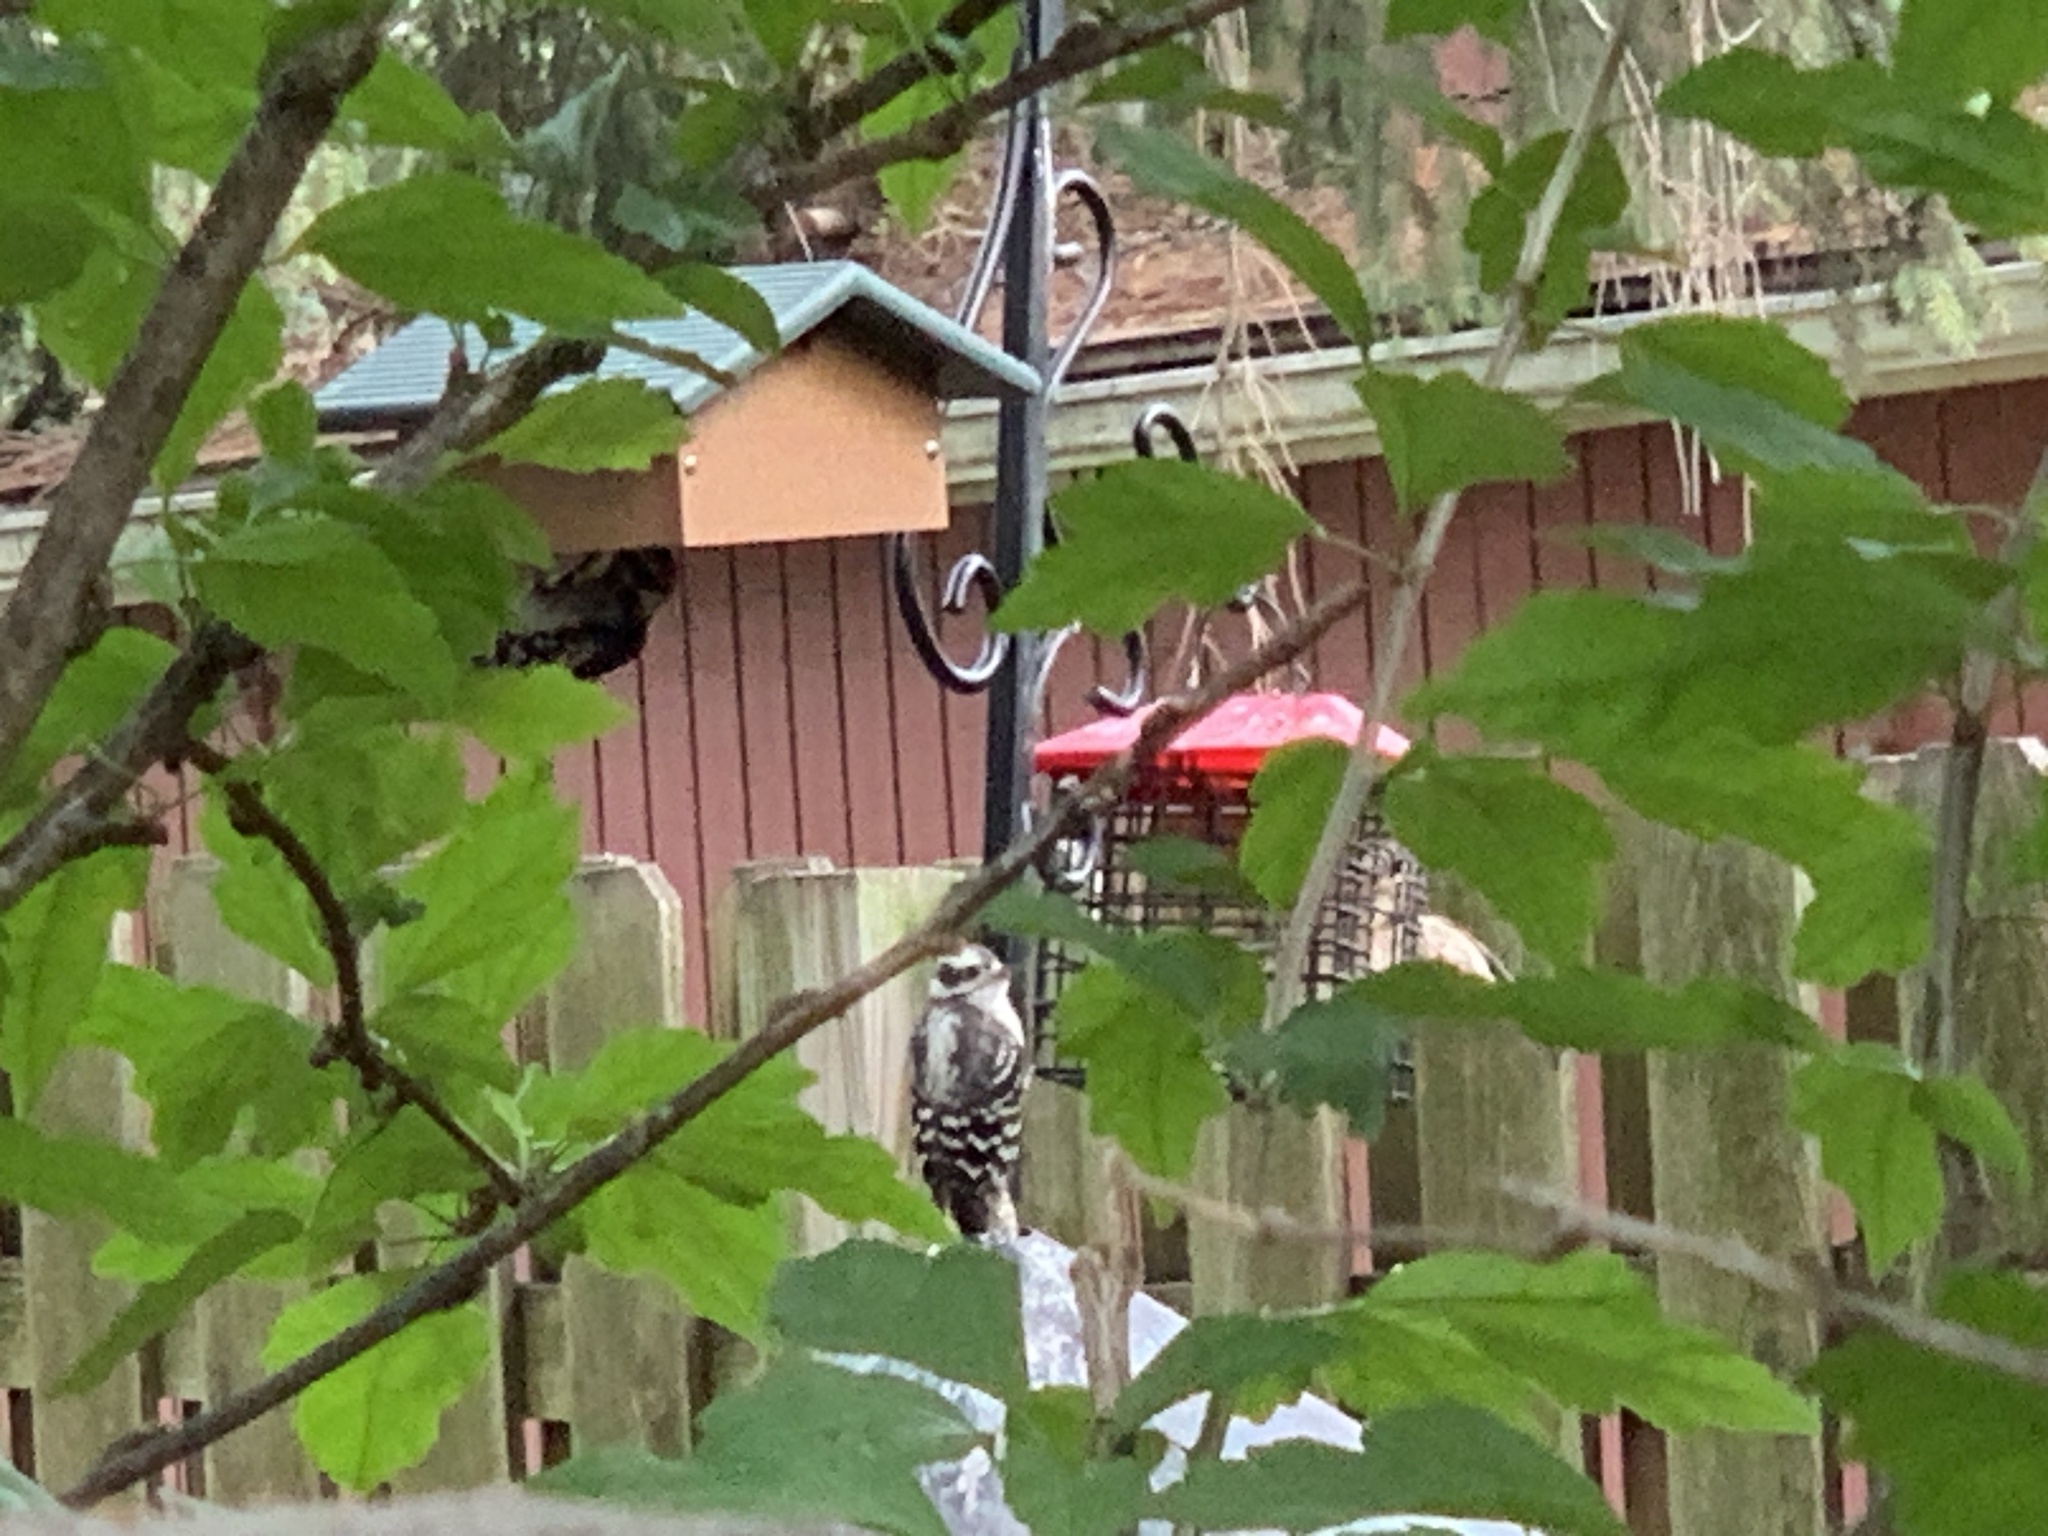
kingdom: Animalia
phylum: Chordata
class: Aves
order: Piciformes
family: Picidae
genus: Dryobates
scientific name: Dryobates pubescens
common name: Downy woodpecker
